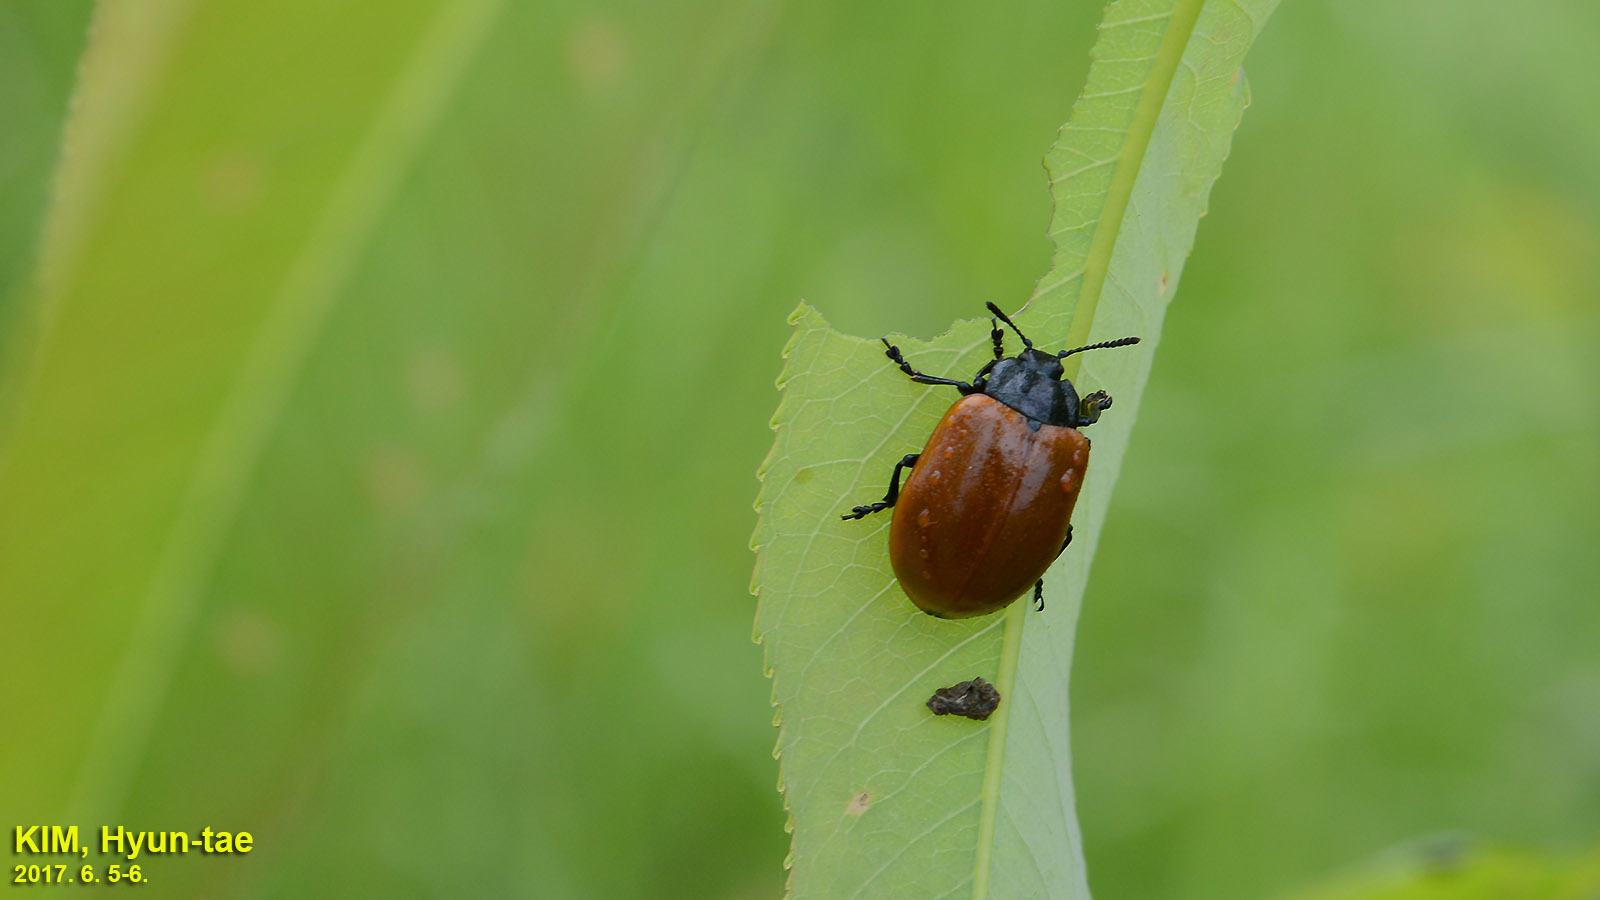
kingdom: Animalia
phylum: Arthropoda
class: Insecta
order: Coleoptera
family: Chrysomelidae
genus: Chrysomela
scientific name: Chrysomela populi
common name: Red poplar leaf beetle
